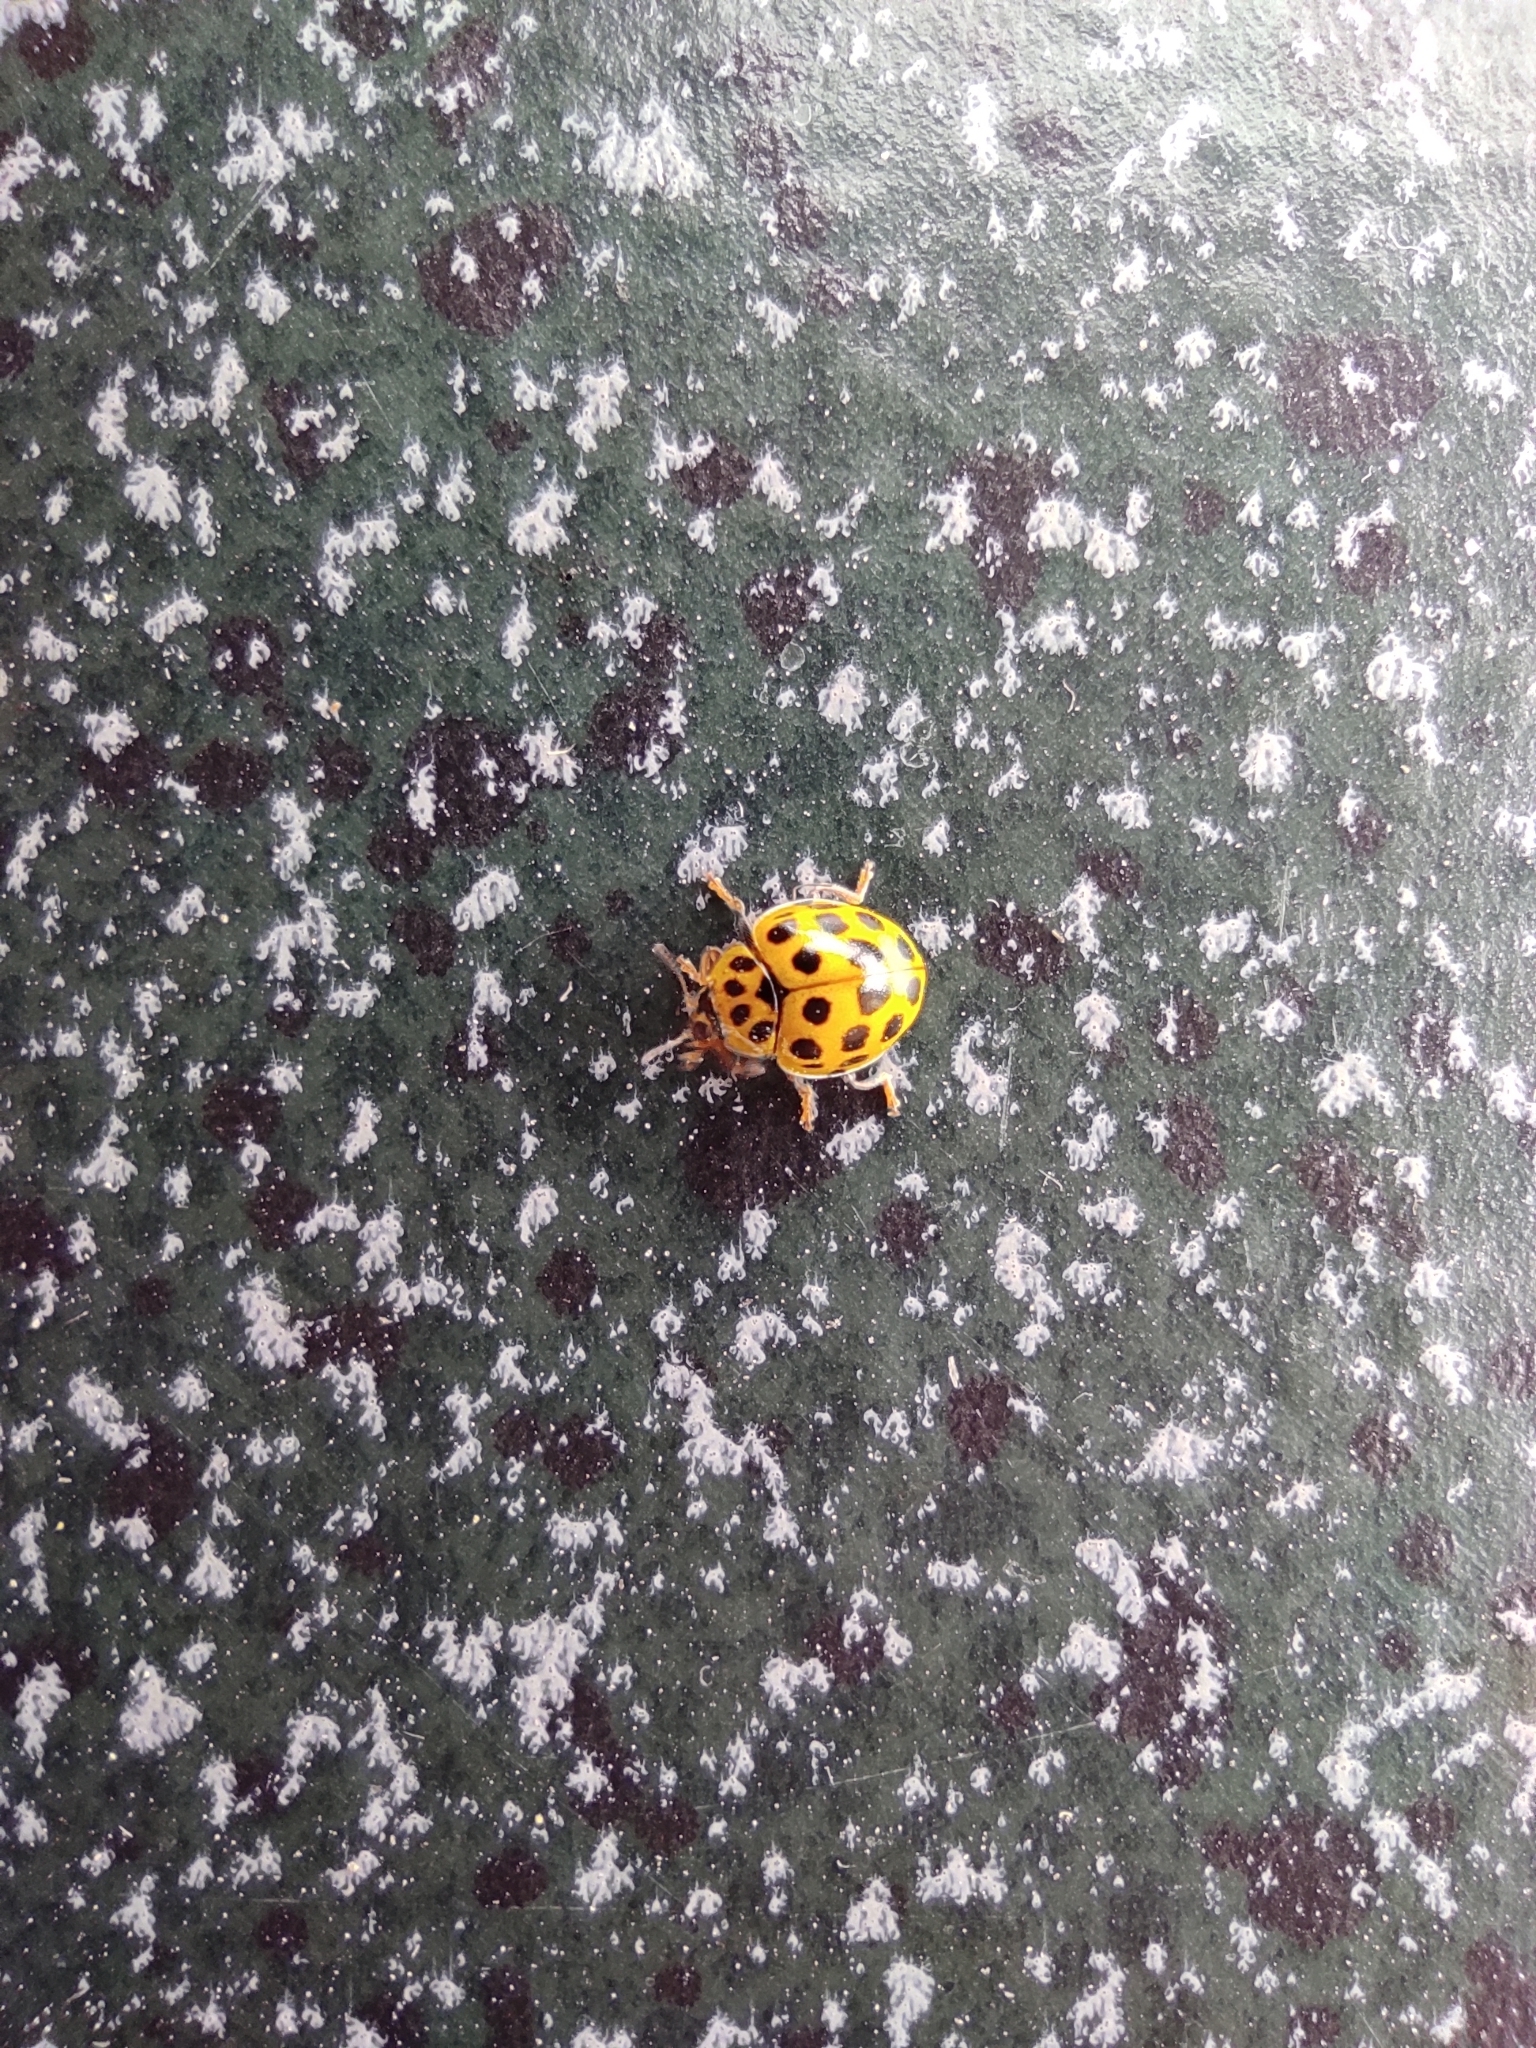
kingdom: Animalia
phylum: Arthropoda
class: Insecta
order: Coleoptera
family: Coccinellidae
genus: Psyllobora
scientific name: Psyllobora vigintiduopunctata
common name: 22-spot ladybird
